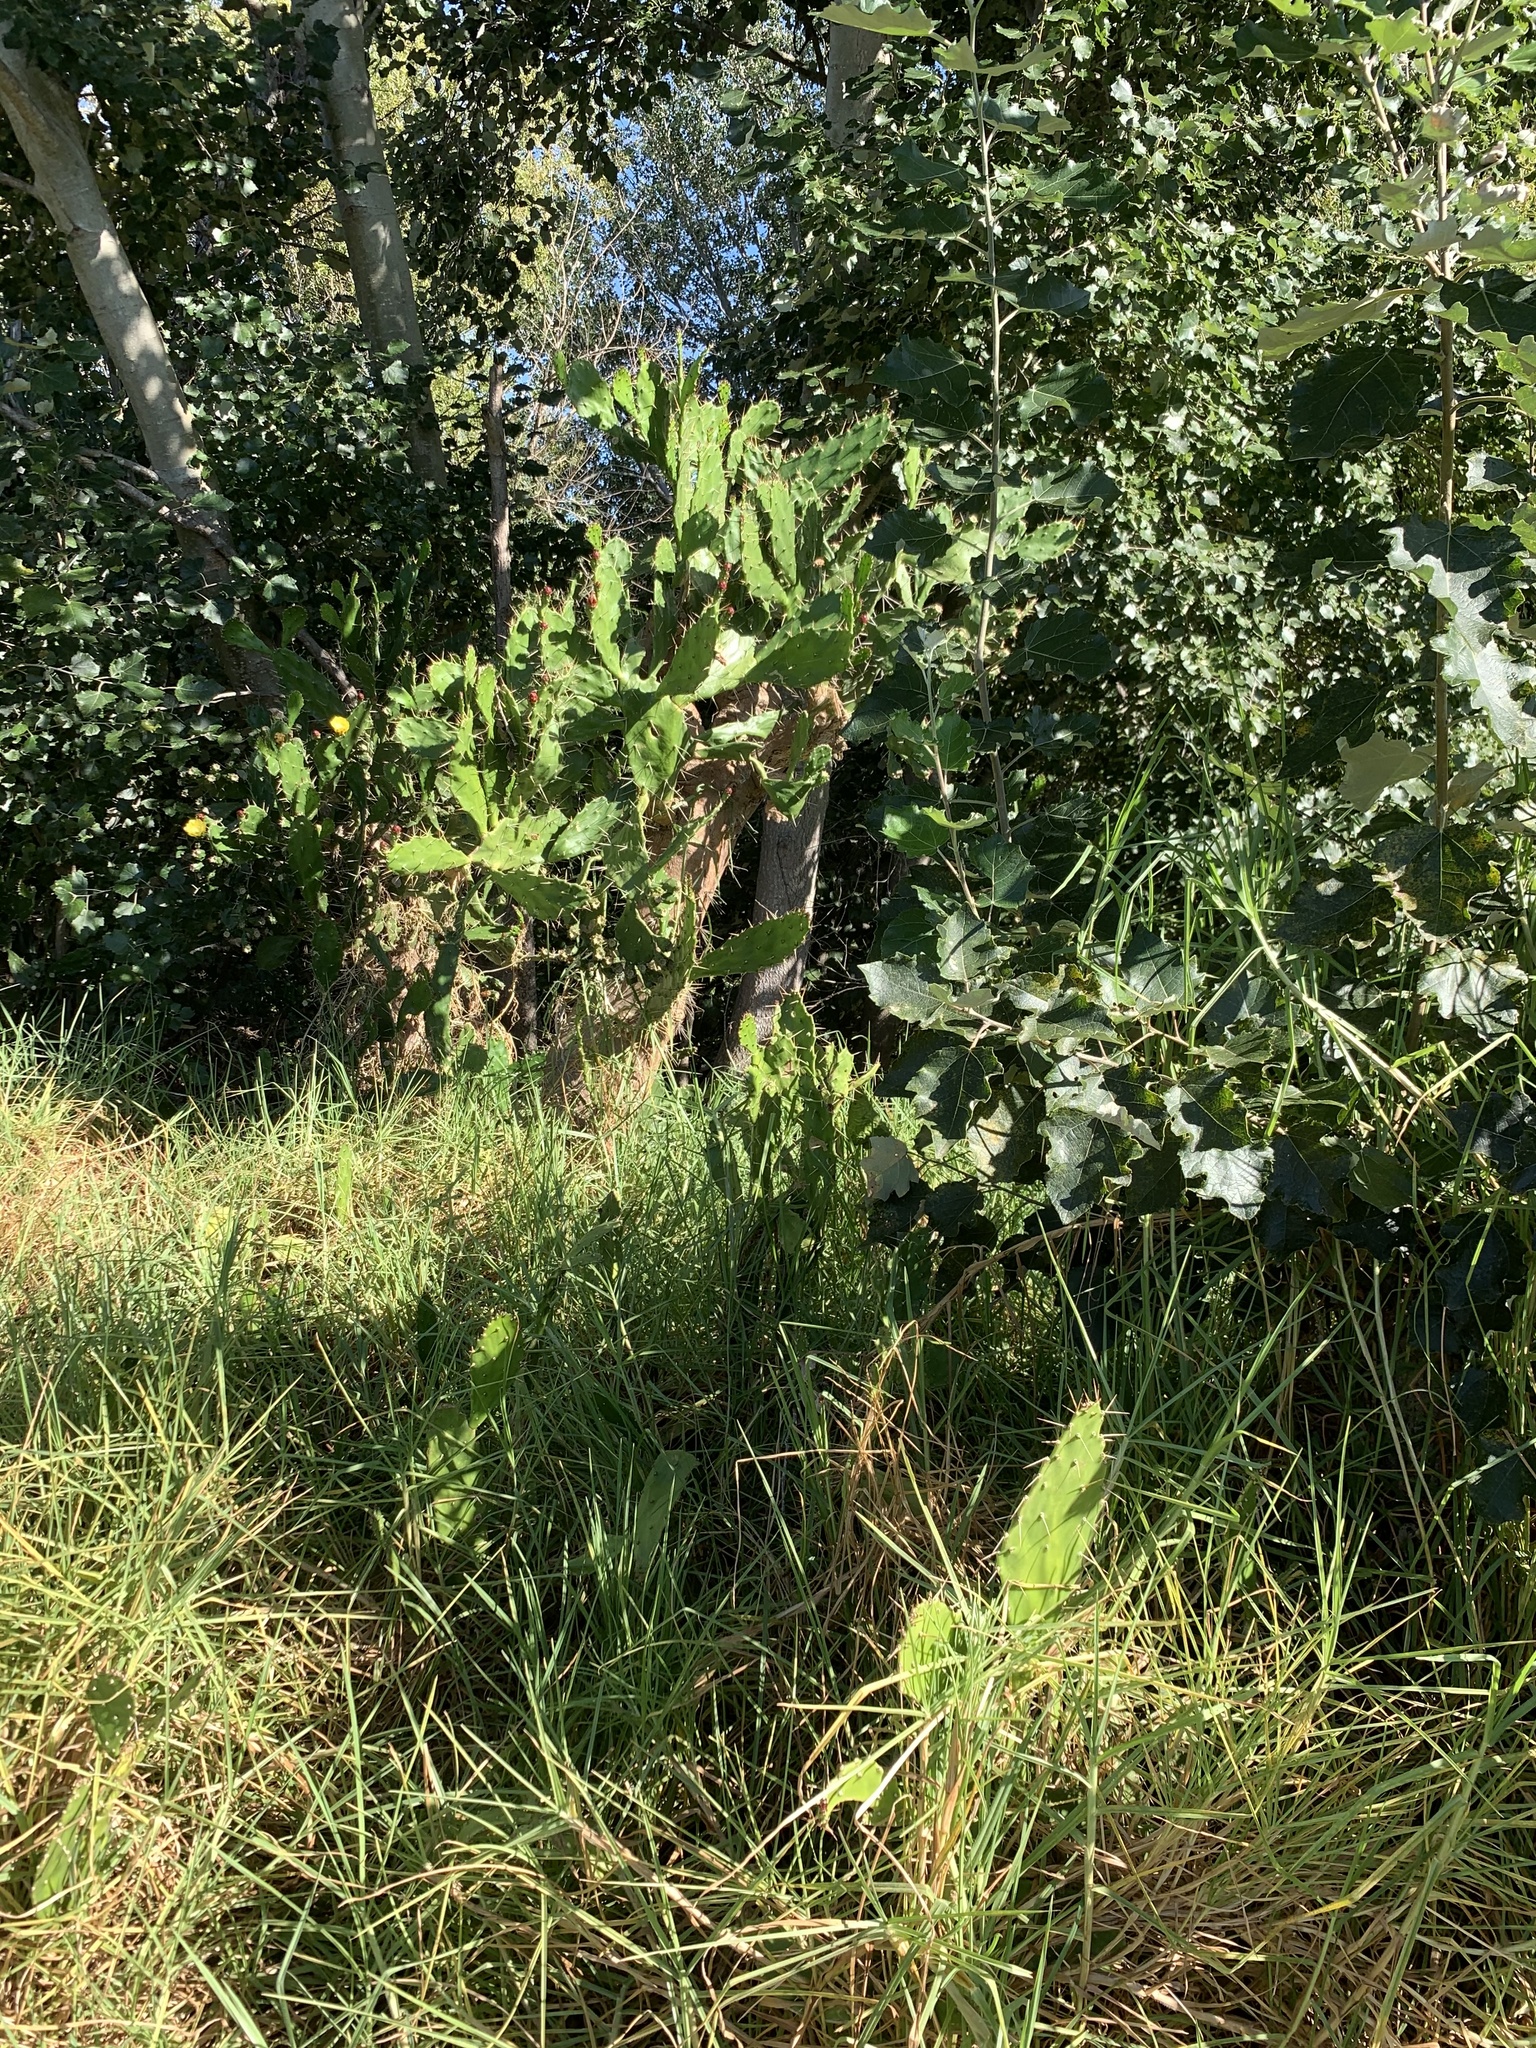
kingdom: Plantae
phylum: Tracheophyta
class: Magnoliopsida
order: Caryophyllales
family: Cactaceae
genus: Opuntia
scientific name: Opuntia monacantha
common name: Common pricklypear
